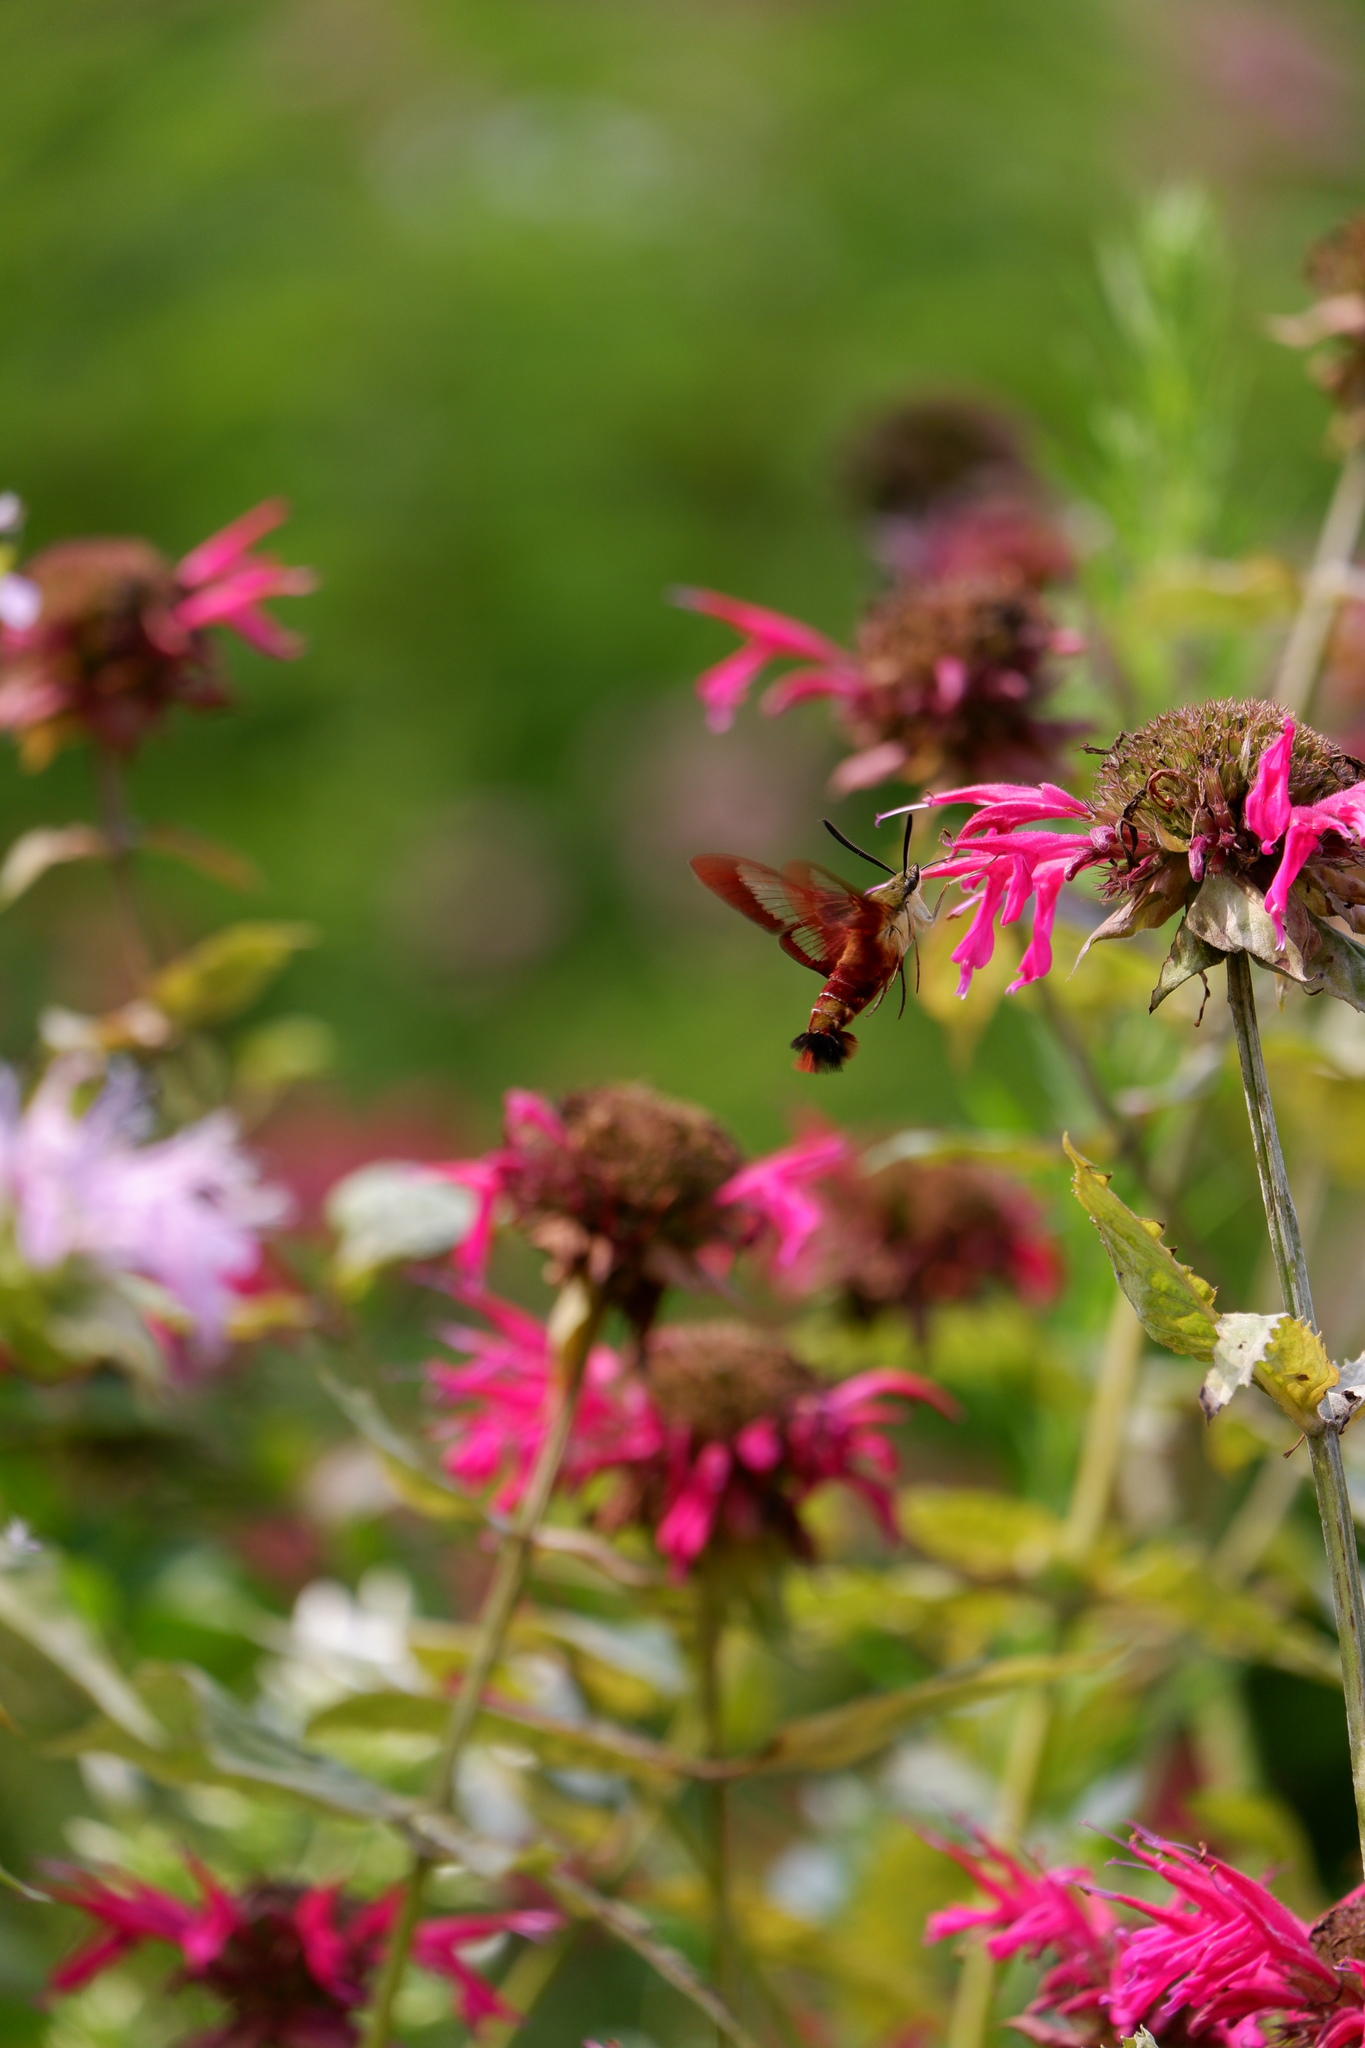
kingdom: Animalia
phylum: Arthropoda
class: Insecta
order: Lepidoptera
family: Sphingidae
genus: Hemaris
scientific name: Hemaris thysbe
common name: Common clear-wing
